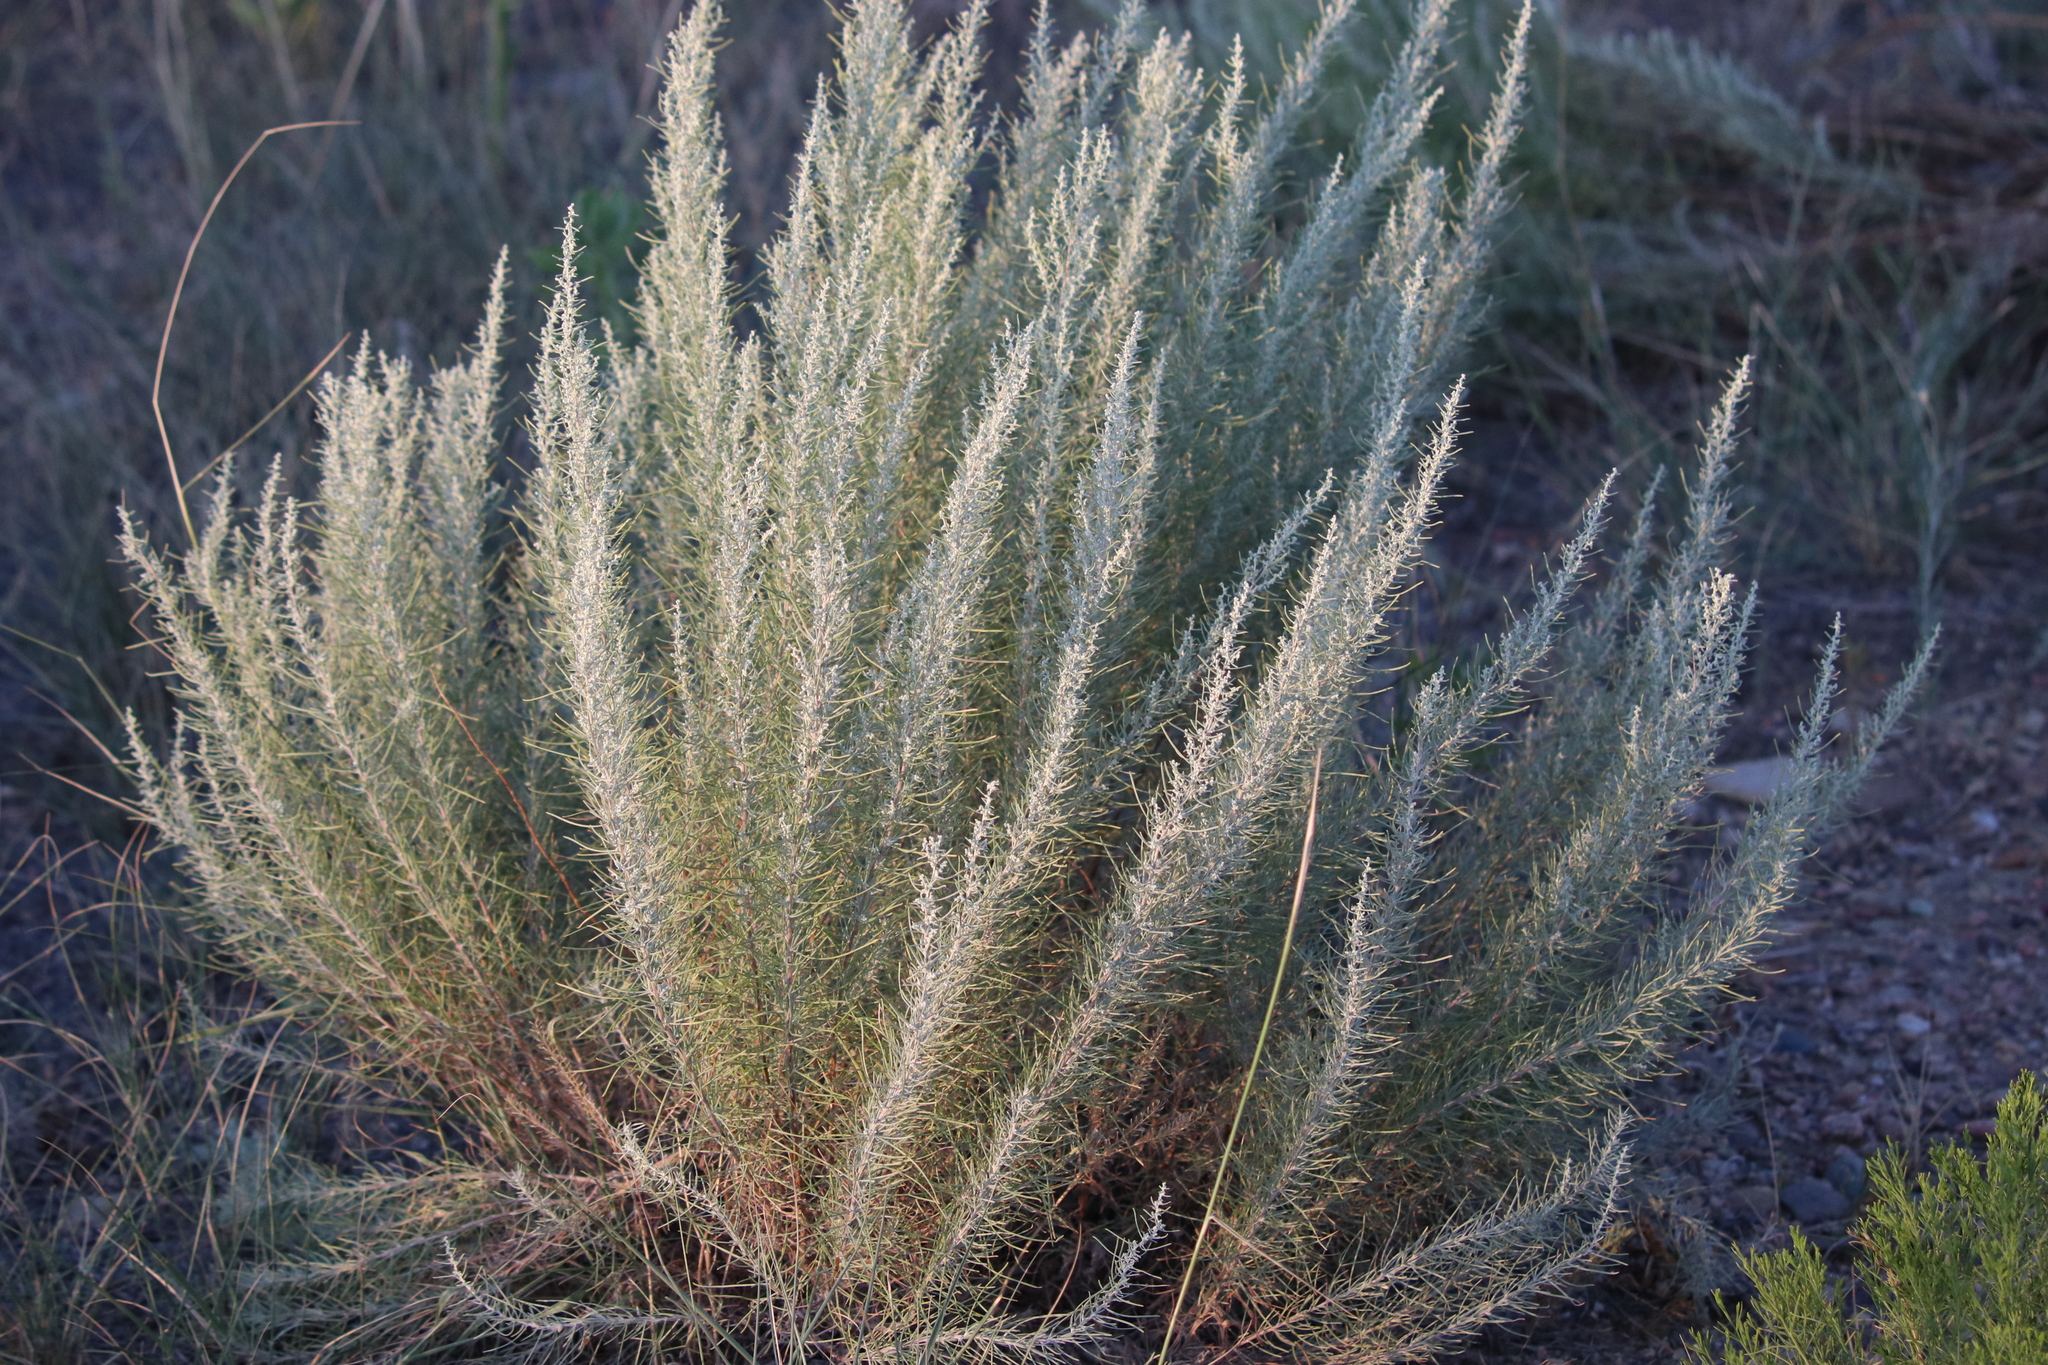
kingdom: Plantae
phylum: Tracheophyta
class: Magnoliopsida
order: Asterales
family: Asteraceae
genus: Artemisia
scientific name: Artemisia filifolia
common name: Sand-sage
